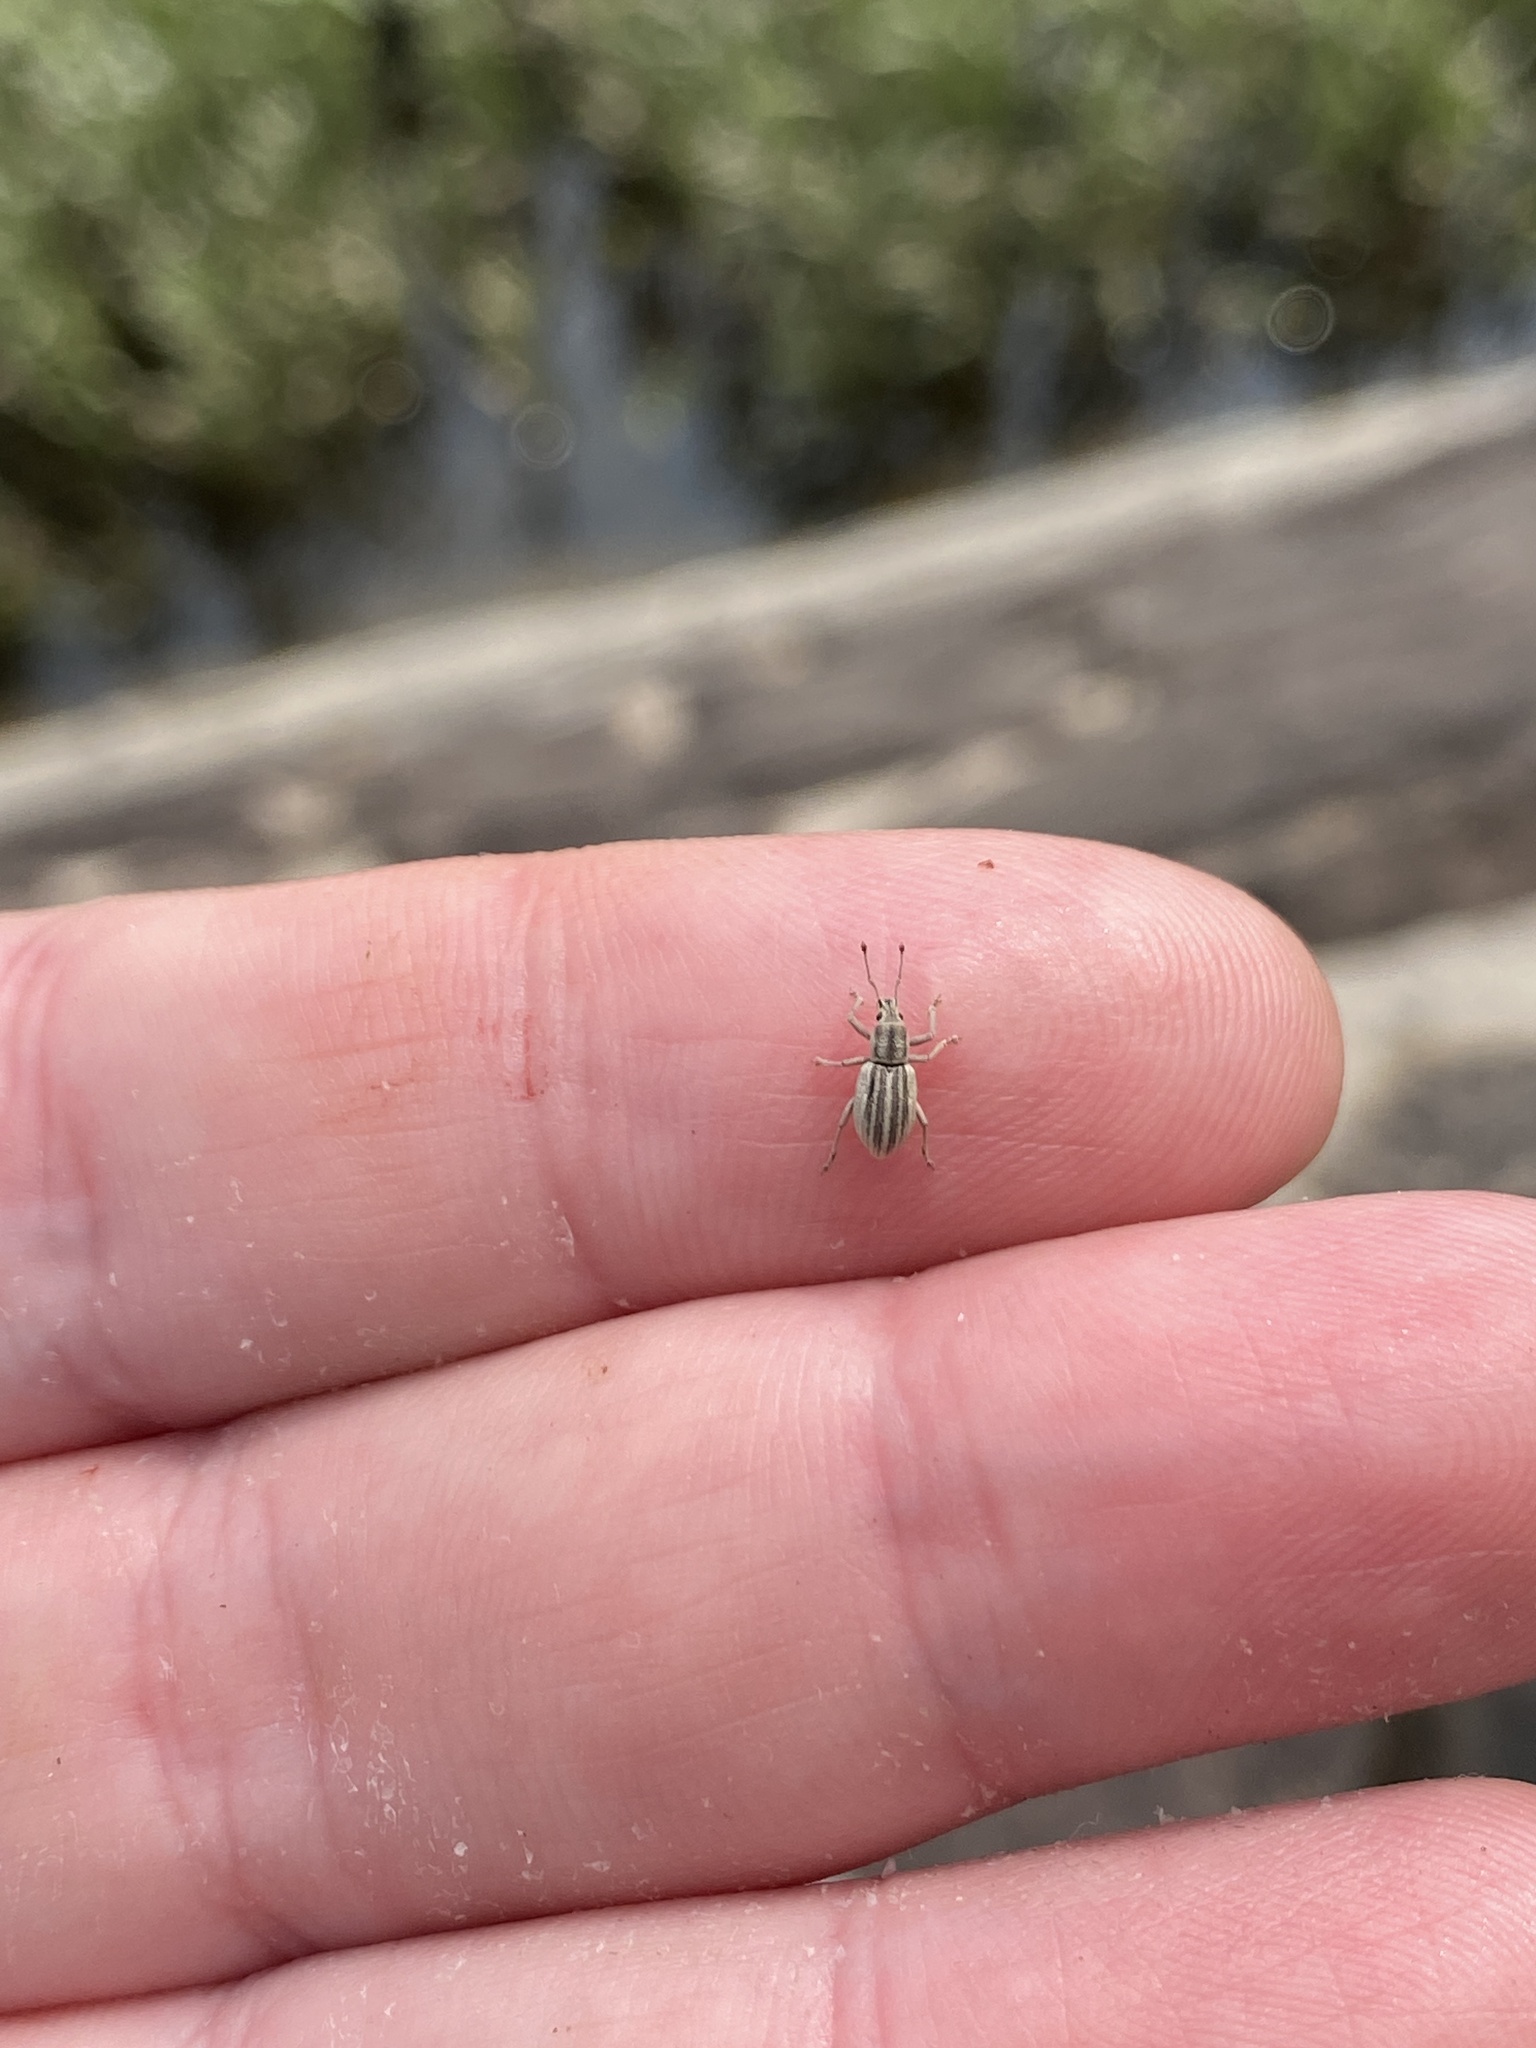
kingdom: Animalia
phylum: Arthropoda
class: Insecta
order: Coleoptera
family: Curculionidae
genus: Aphrastus
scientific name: Aphrastus taeniatus
